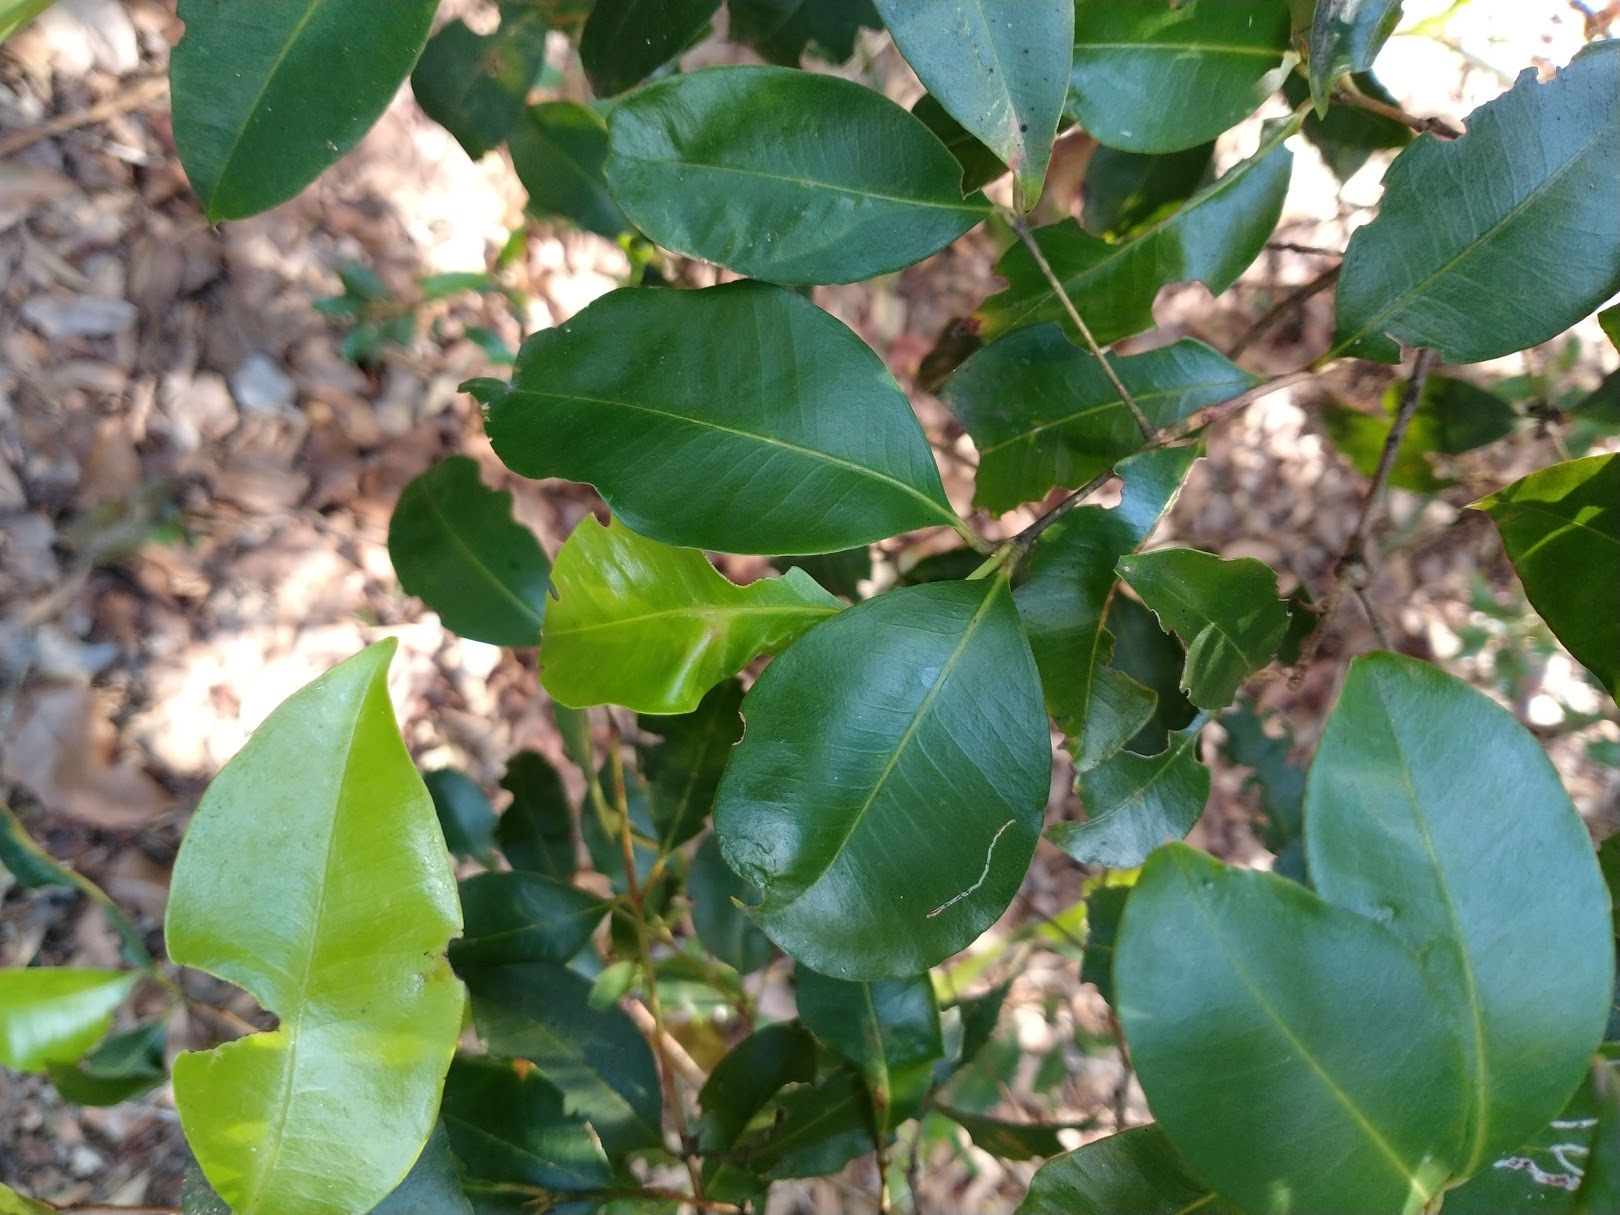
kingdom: Plantae
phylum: Tracheophyta
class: Magnoliopsida
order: Myrtales
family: Myrtaceae
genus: Syzygium
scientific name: Syzygium oleosum
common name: Oily satin-ash
